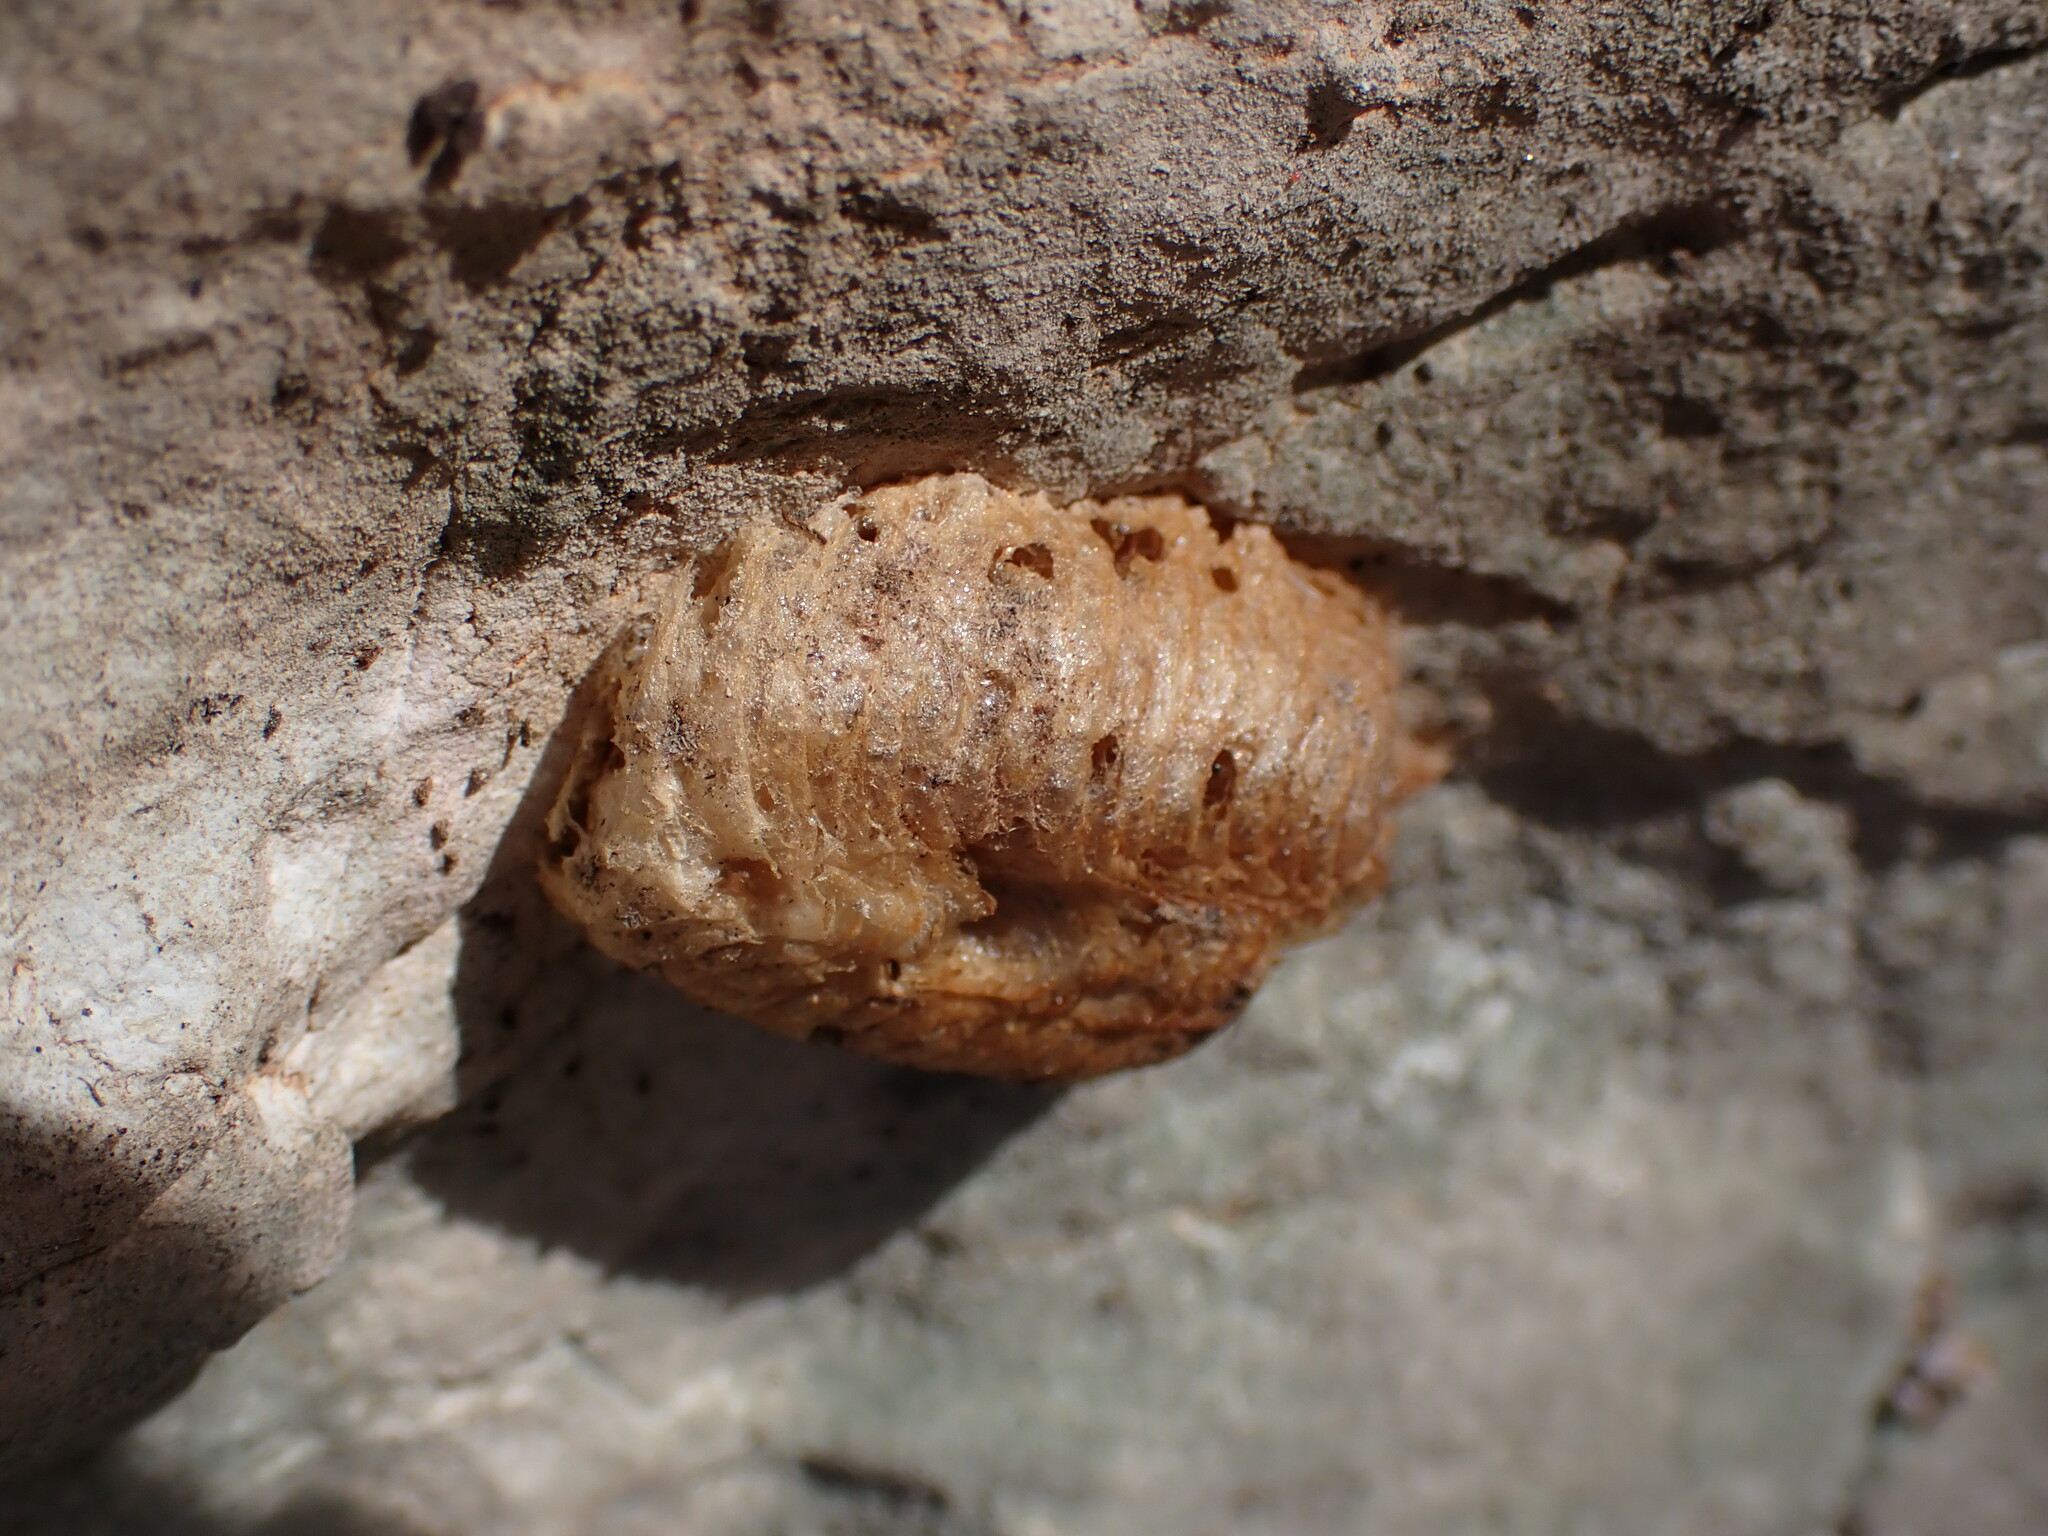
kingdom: Animalia
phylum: Arthropoda
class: Insecta
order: Mantodea
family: Mantidae
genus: Mantis
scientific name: Mantis religiosa
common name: Praying mantis
